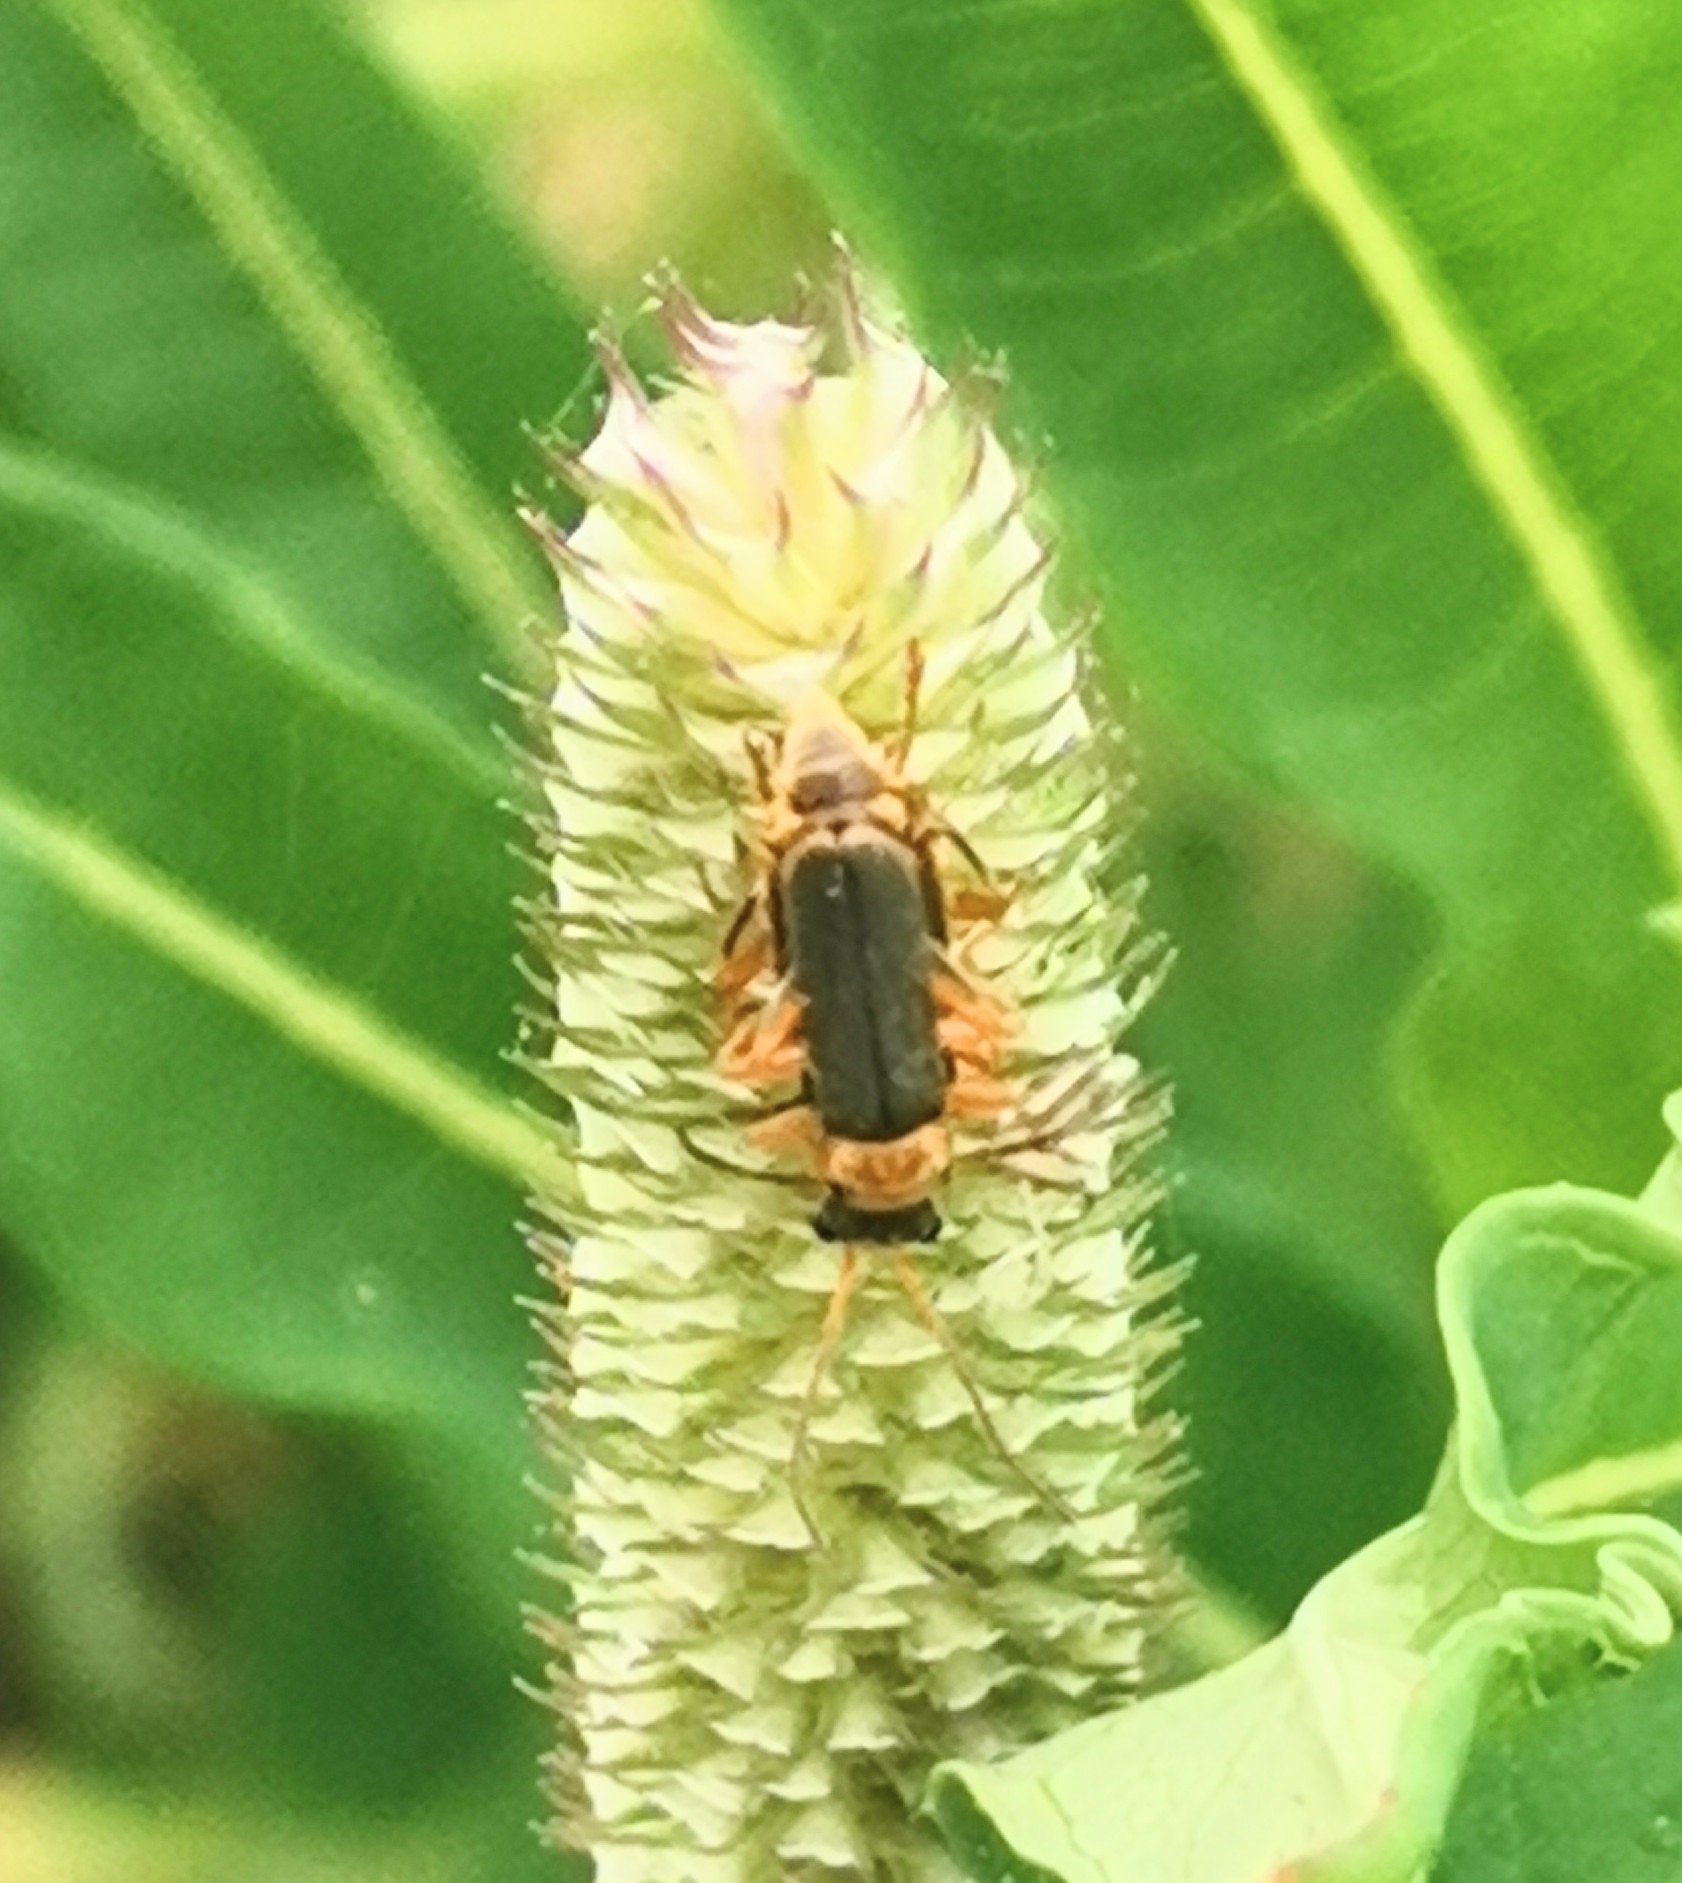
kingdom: Animalia
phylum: Arthropoda
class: Insecta
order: Coleoptera
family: Cantharidae
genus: Cantharis
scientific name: Cantharis lateralis
